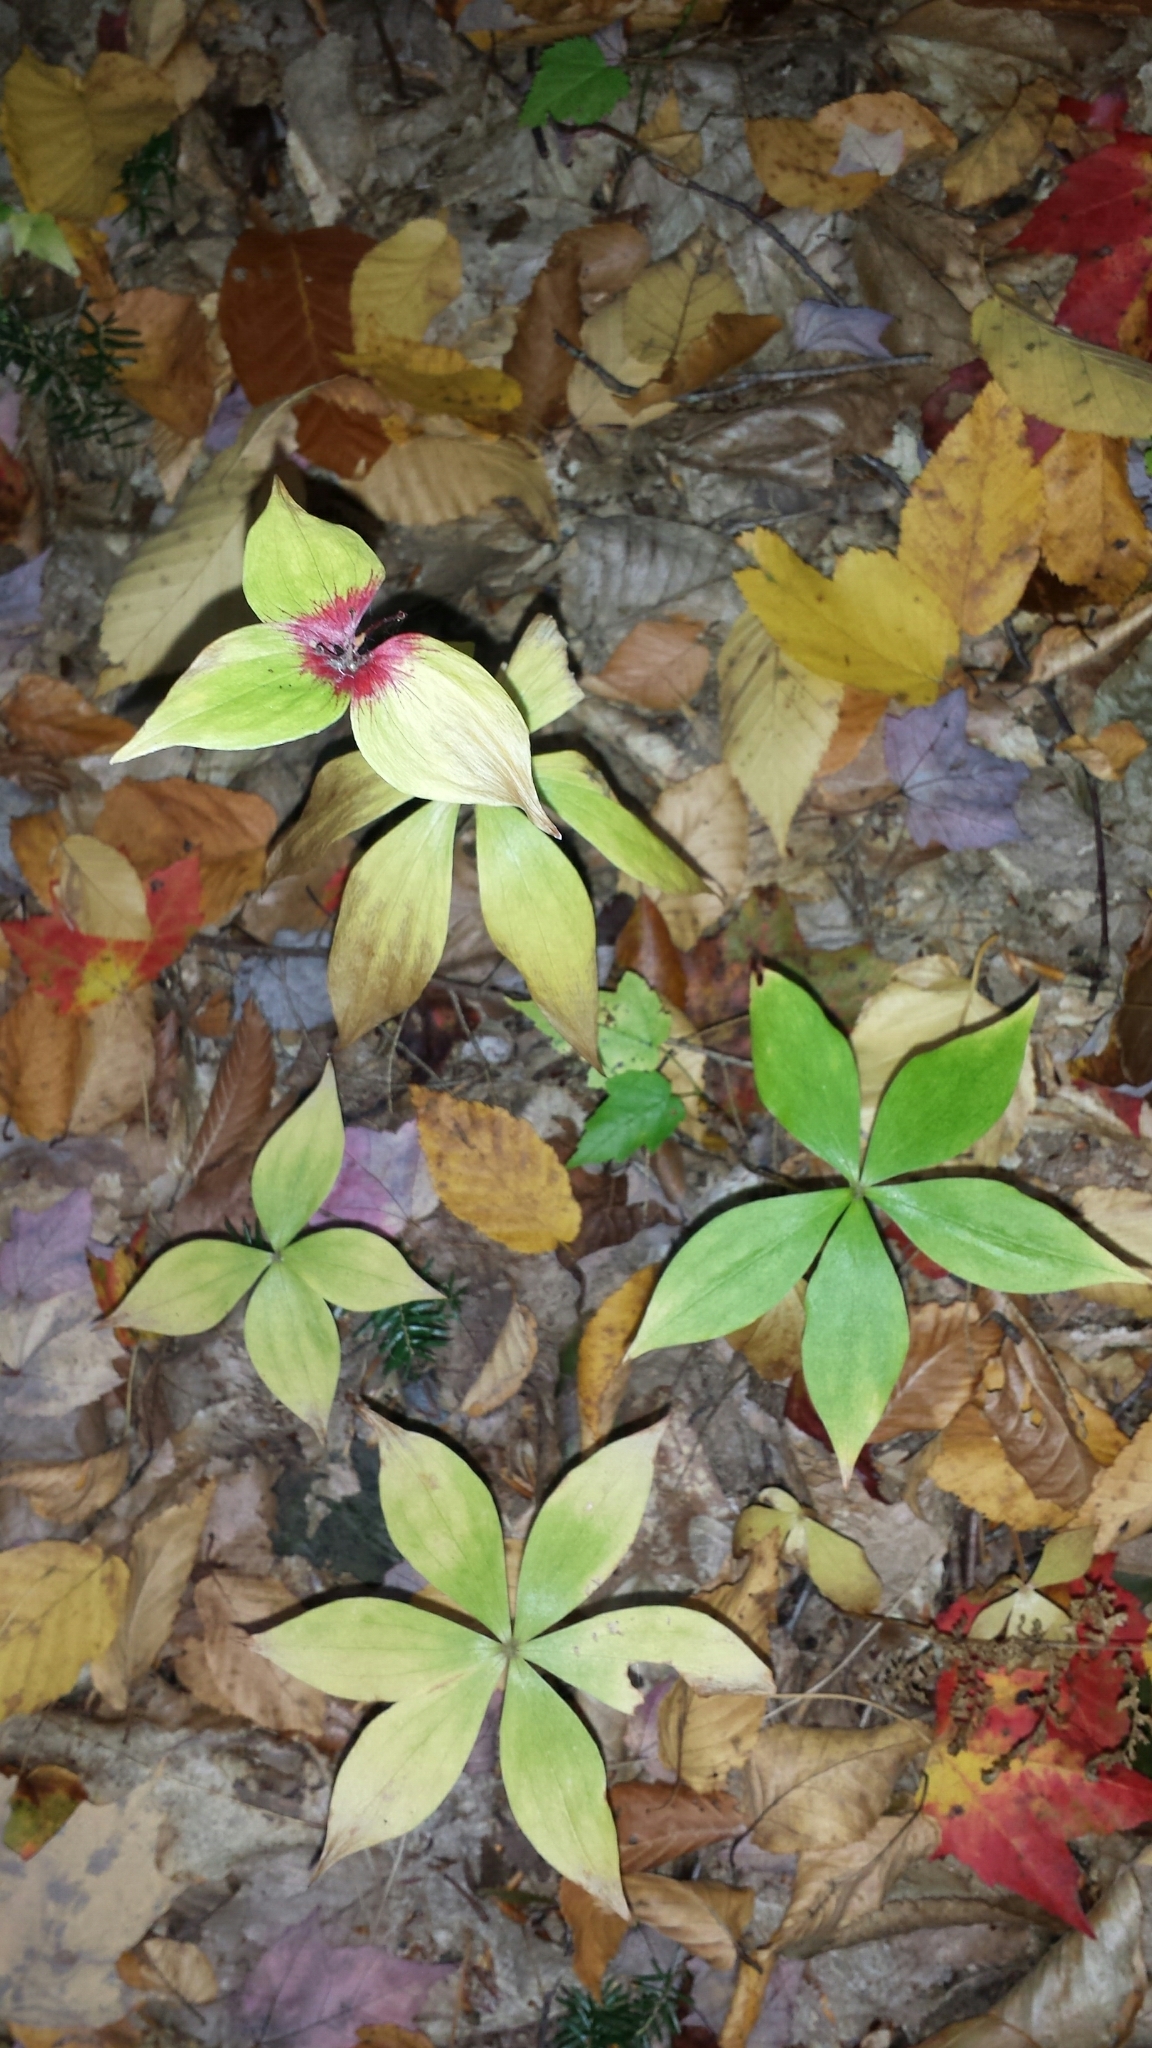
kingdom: Plantae
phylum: Tracheophyta
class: Liliopsida
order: Liliales
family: Liliaceae
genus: Medeola
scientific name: Medeola virginiana
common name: Indian cucumber-root
